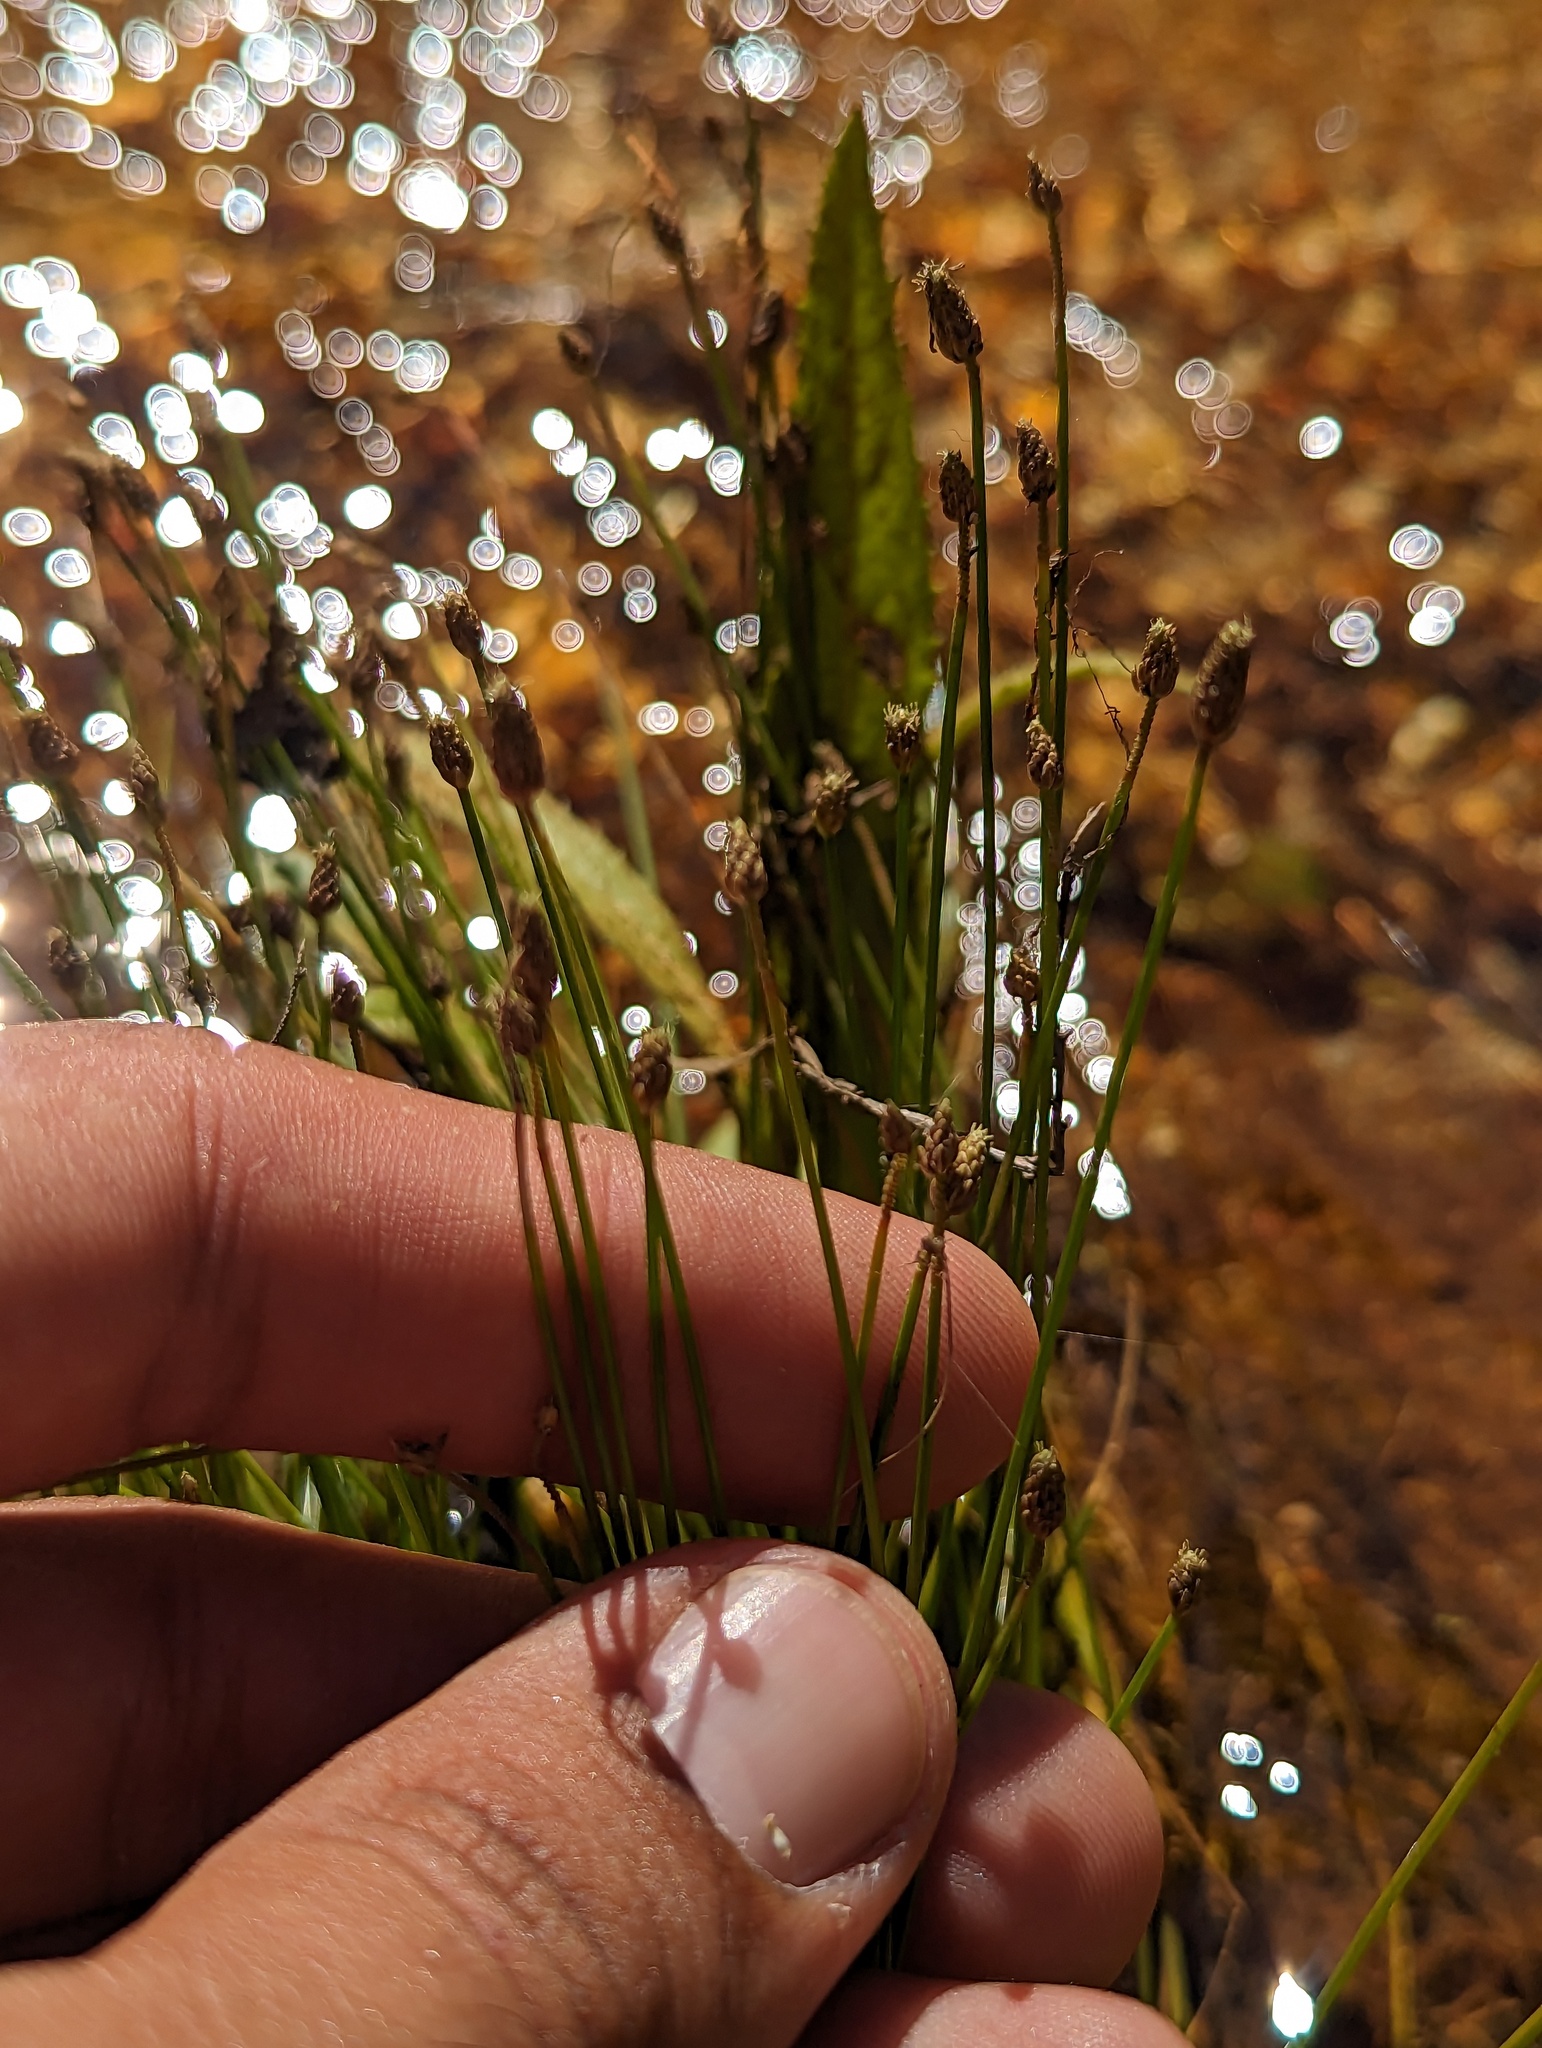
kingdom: Plantae
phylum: Tracheophyta
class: Liliopsida
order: Poales
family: Cyperaceae
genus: Eleocharis
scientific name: Eleocharis geniculata
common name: Canada spikesedge
